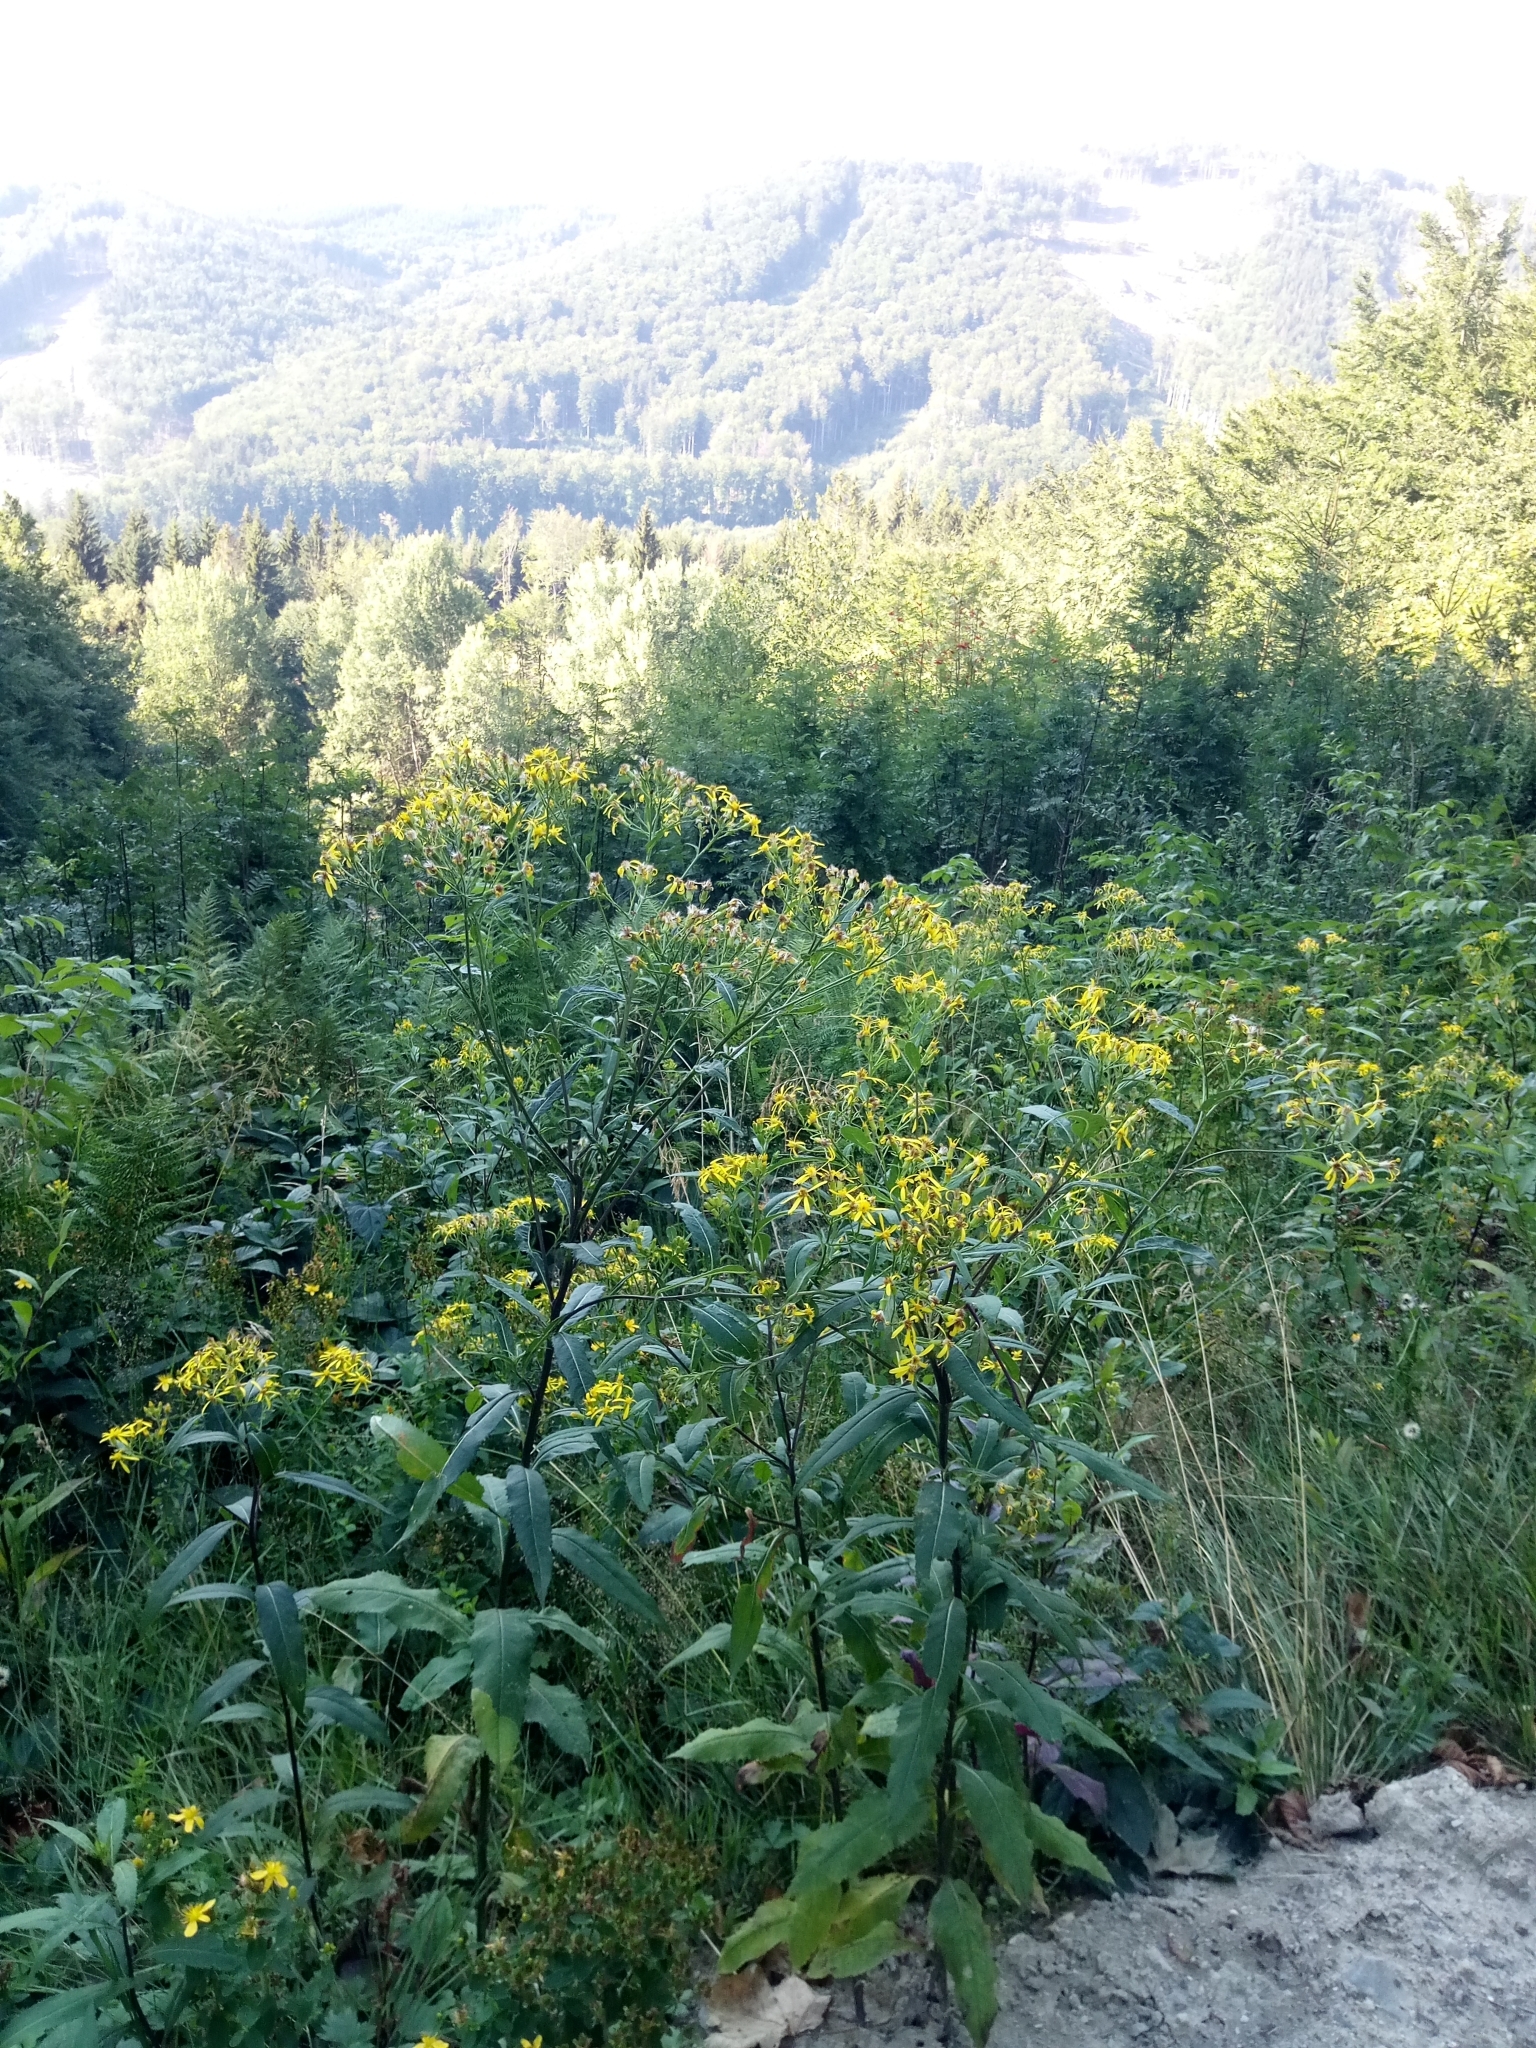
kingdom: Plantae
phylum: Tracheophyta
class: Magnoliopsida
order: Asterales
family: Asteraceae
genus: Senecio
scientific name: Senecio ovatus
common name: Wood ragwort
